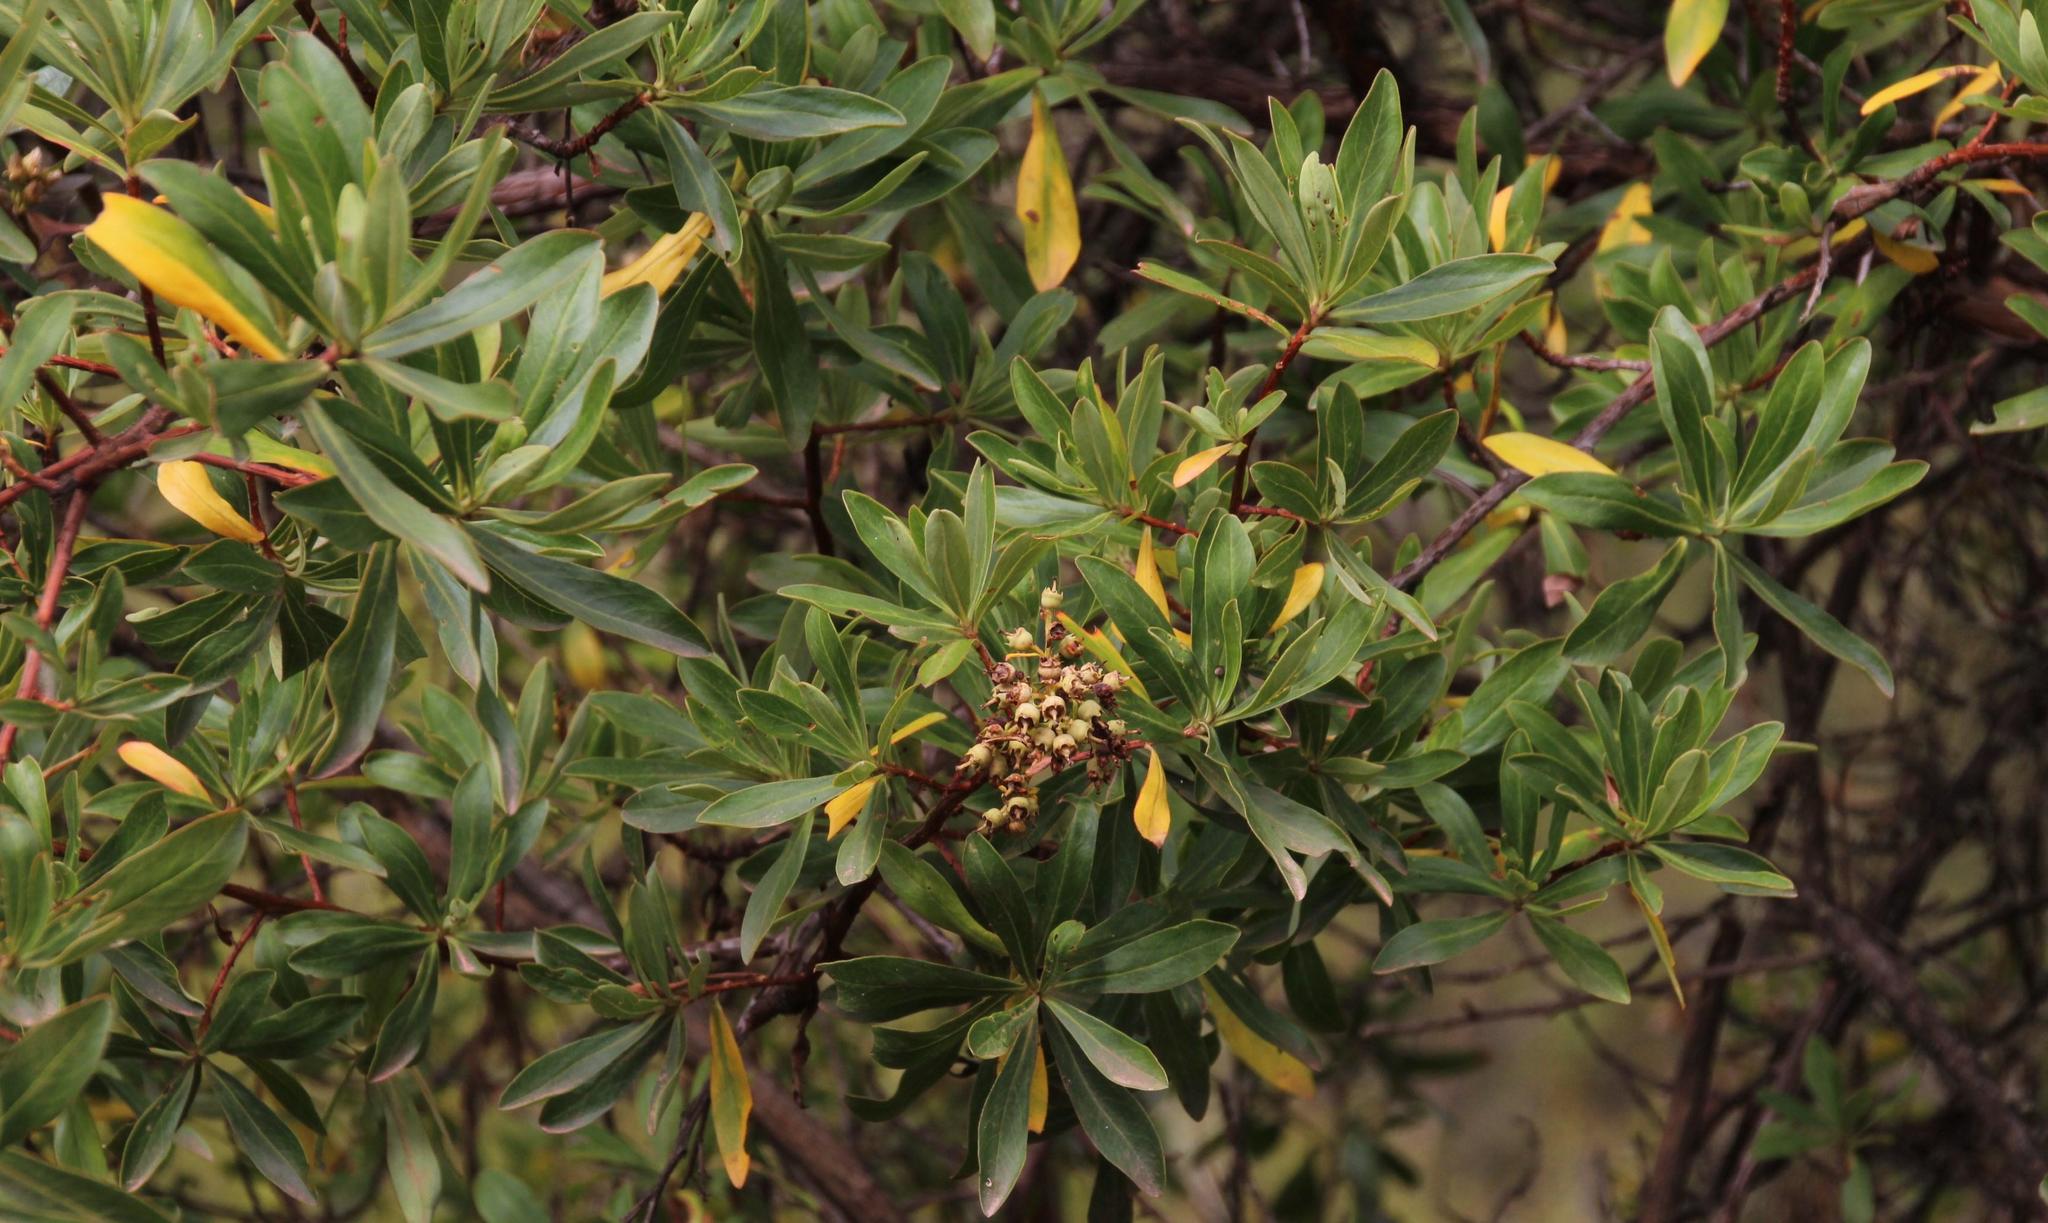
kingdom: Plantae
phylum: Tracheophyta
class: Magnoliopsida
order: Escalloniales
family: Escalloniaceae
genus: Escallonia
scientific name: Escallonia resinosa
